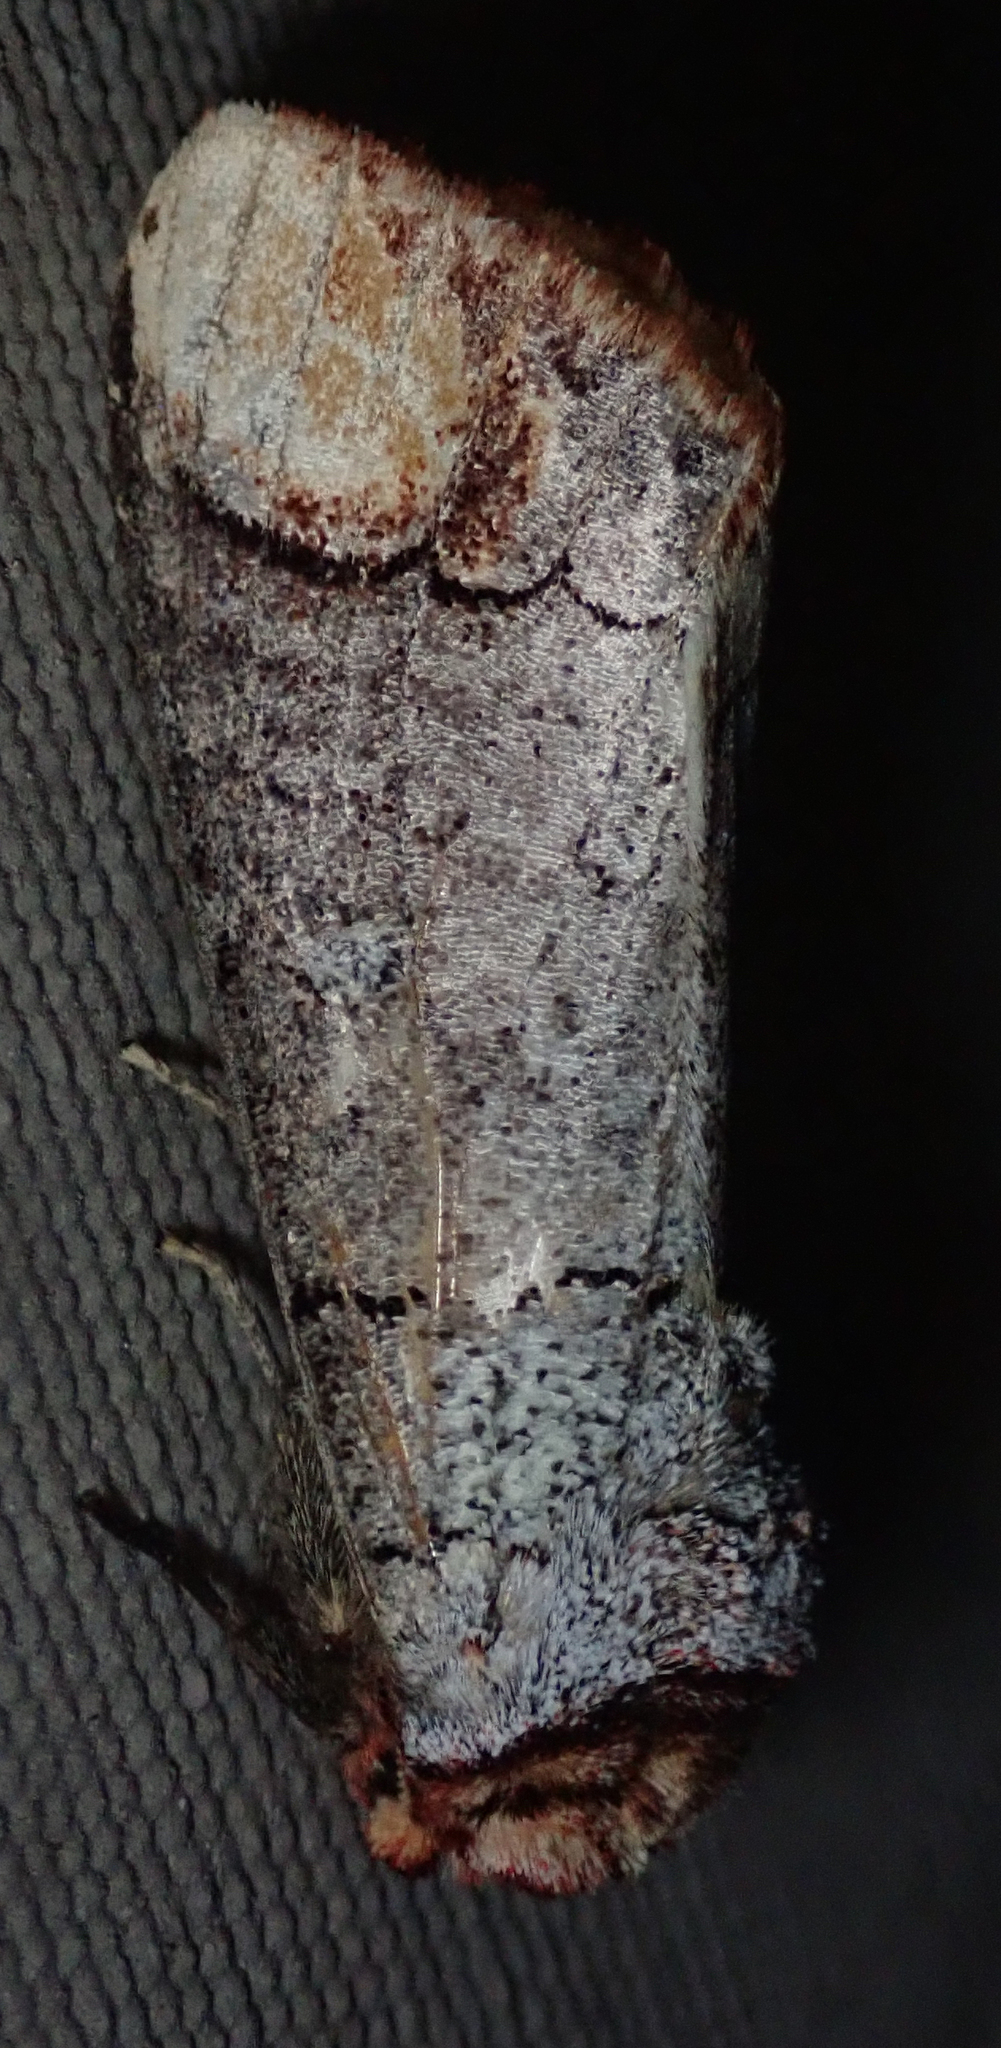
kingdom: Animalia
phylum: Arthropoda
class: Insecta
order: Lepidoptera
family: Notodontidae
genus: Phalera
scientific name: Phalera imitata
